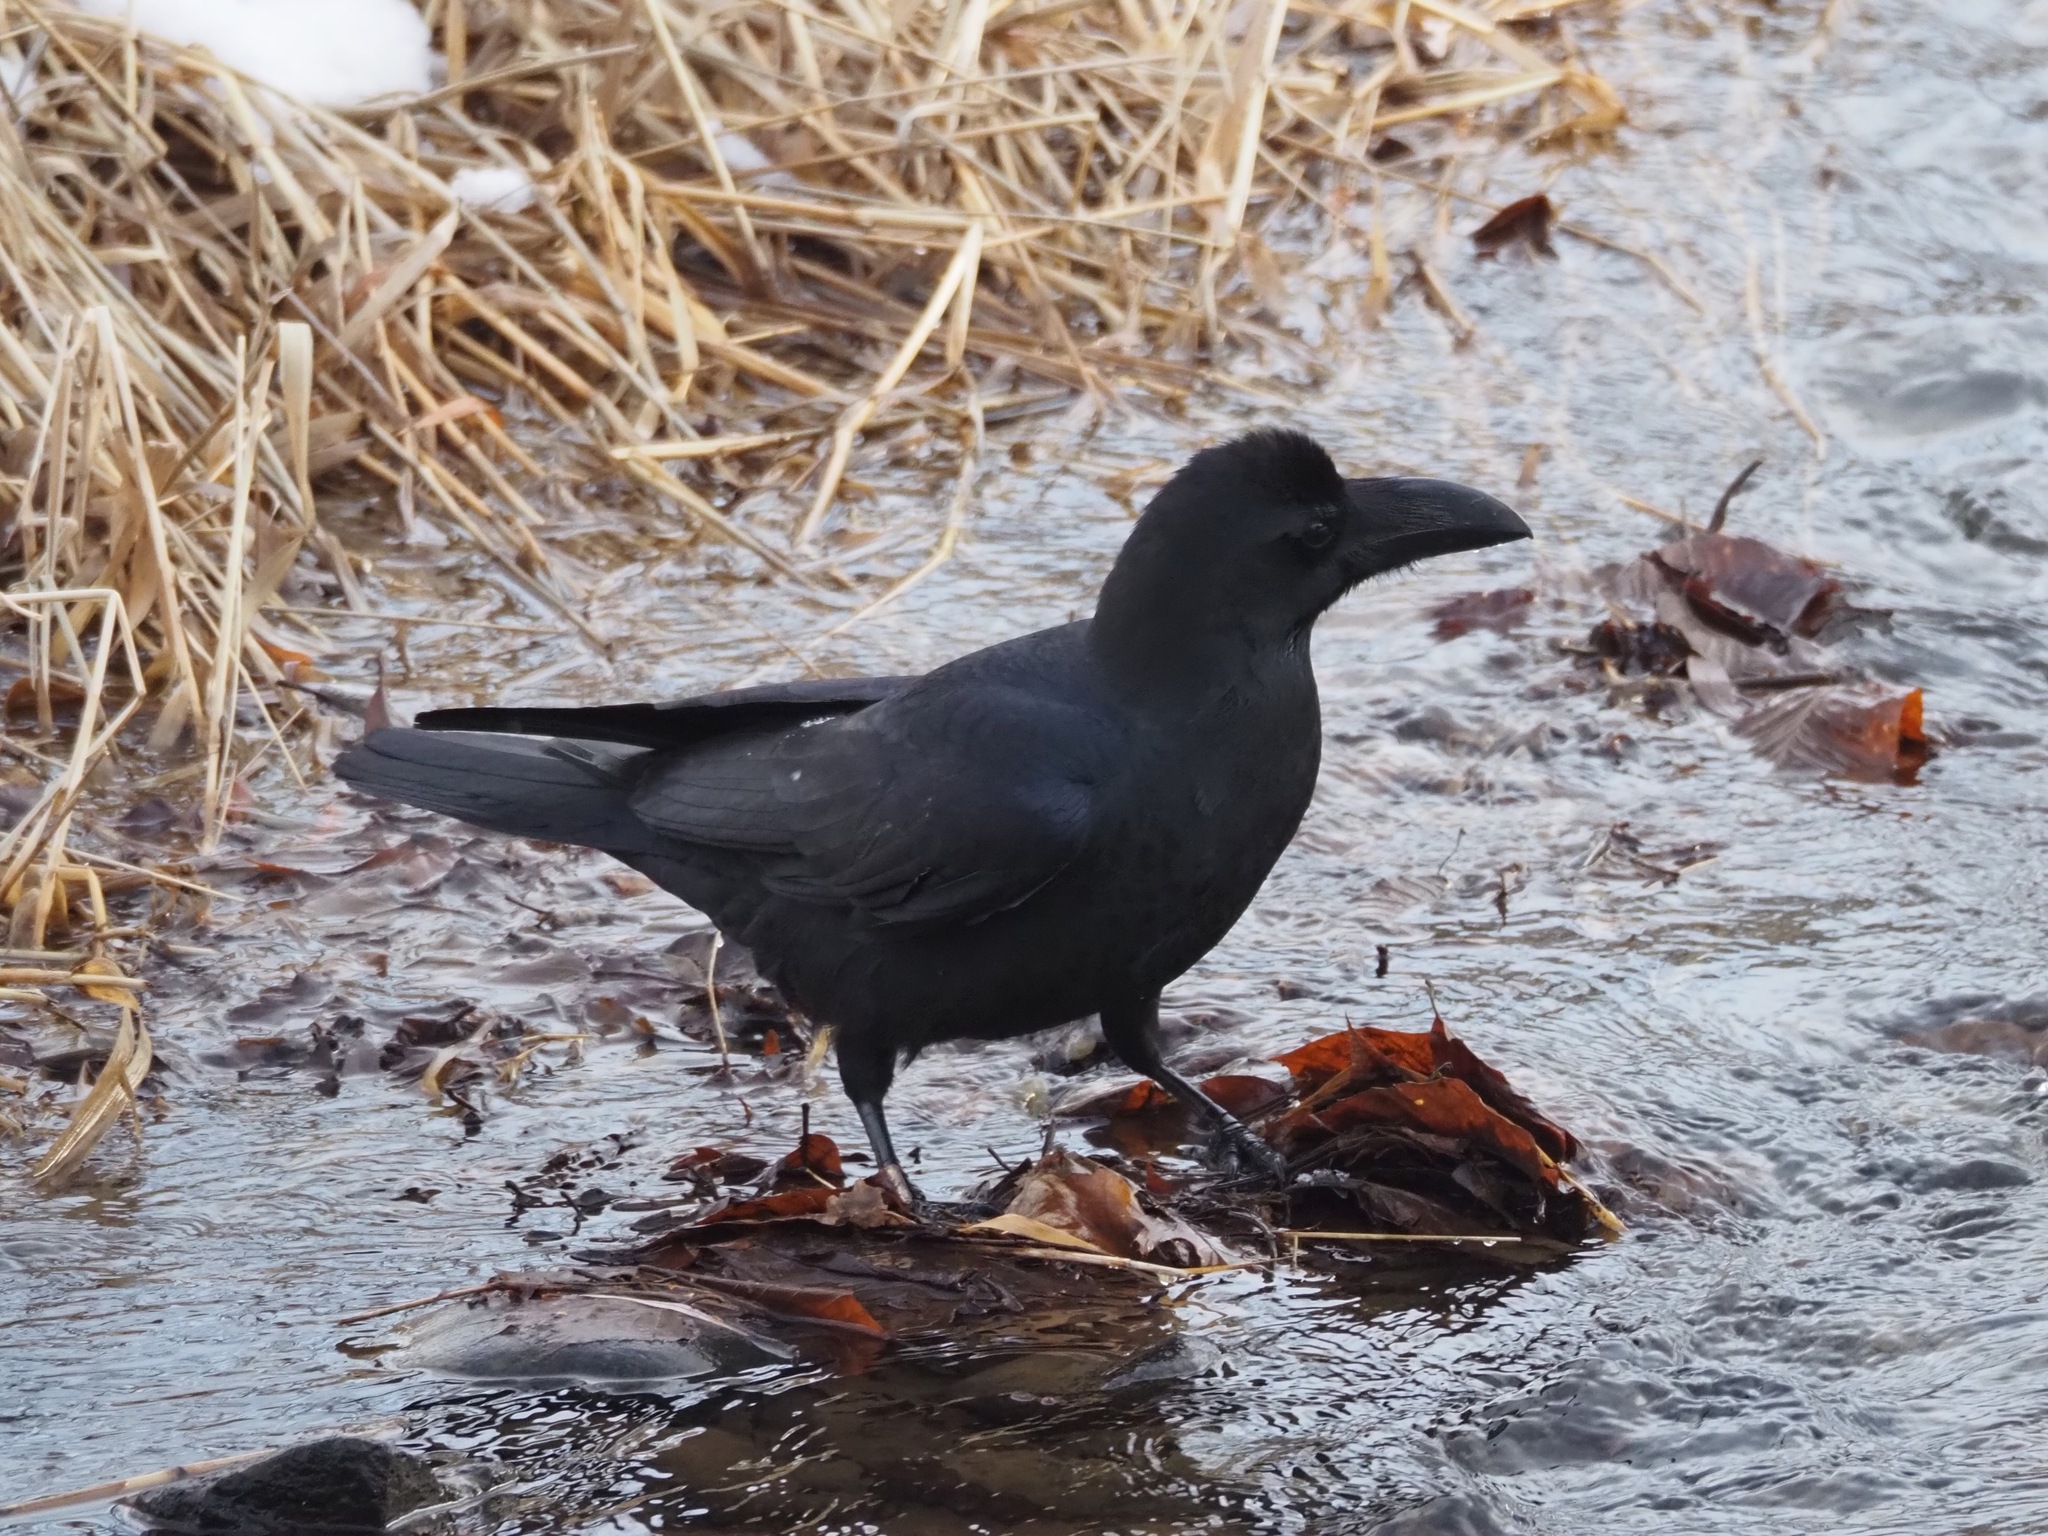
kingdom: Animalia
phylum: Chordata
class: Aves
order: Passeriformes
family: Corvidae
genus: Corvus
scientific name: Corvus macrorhynchos
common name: Large-billed crow
